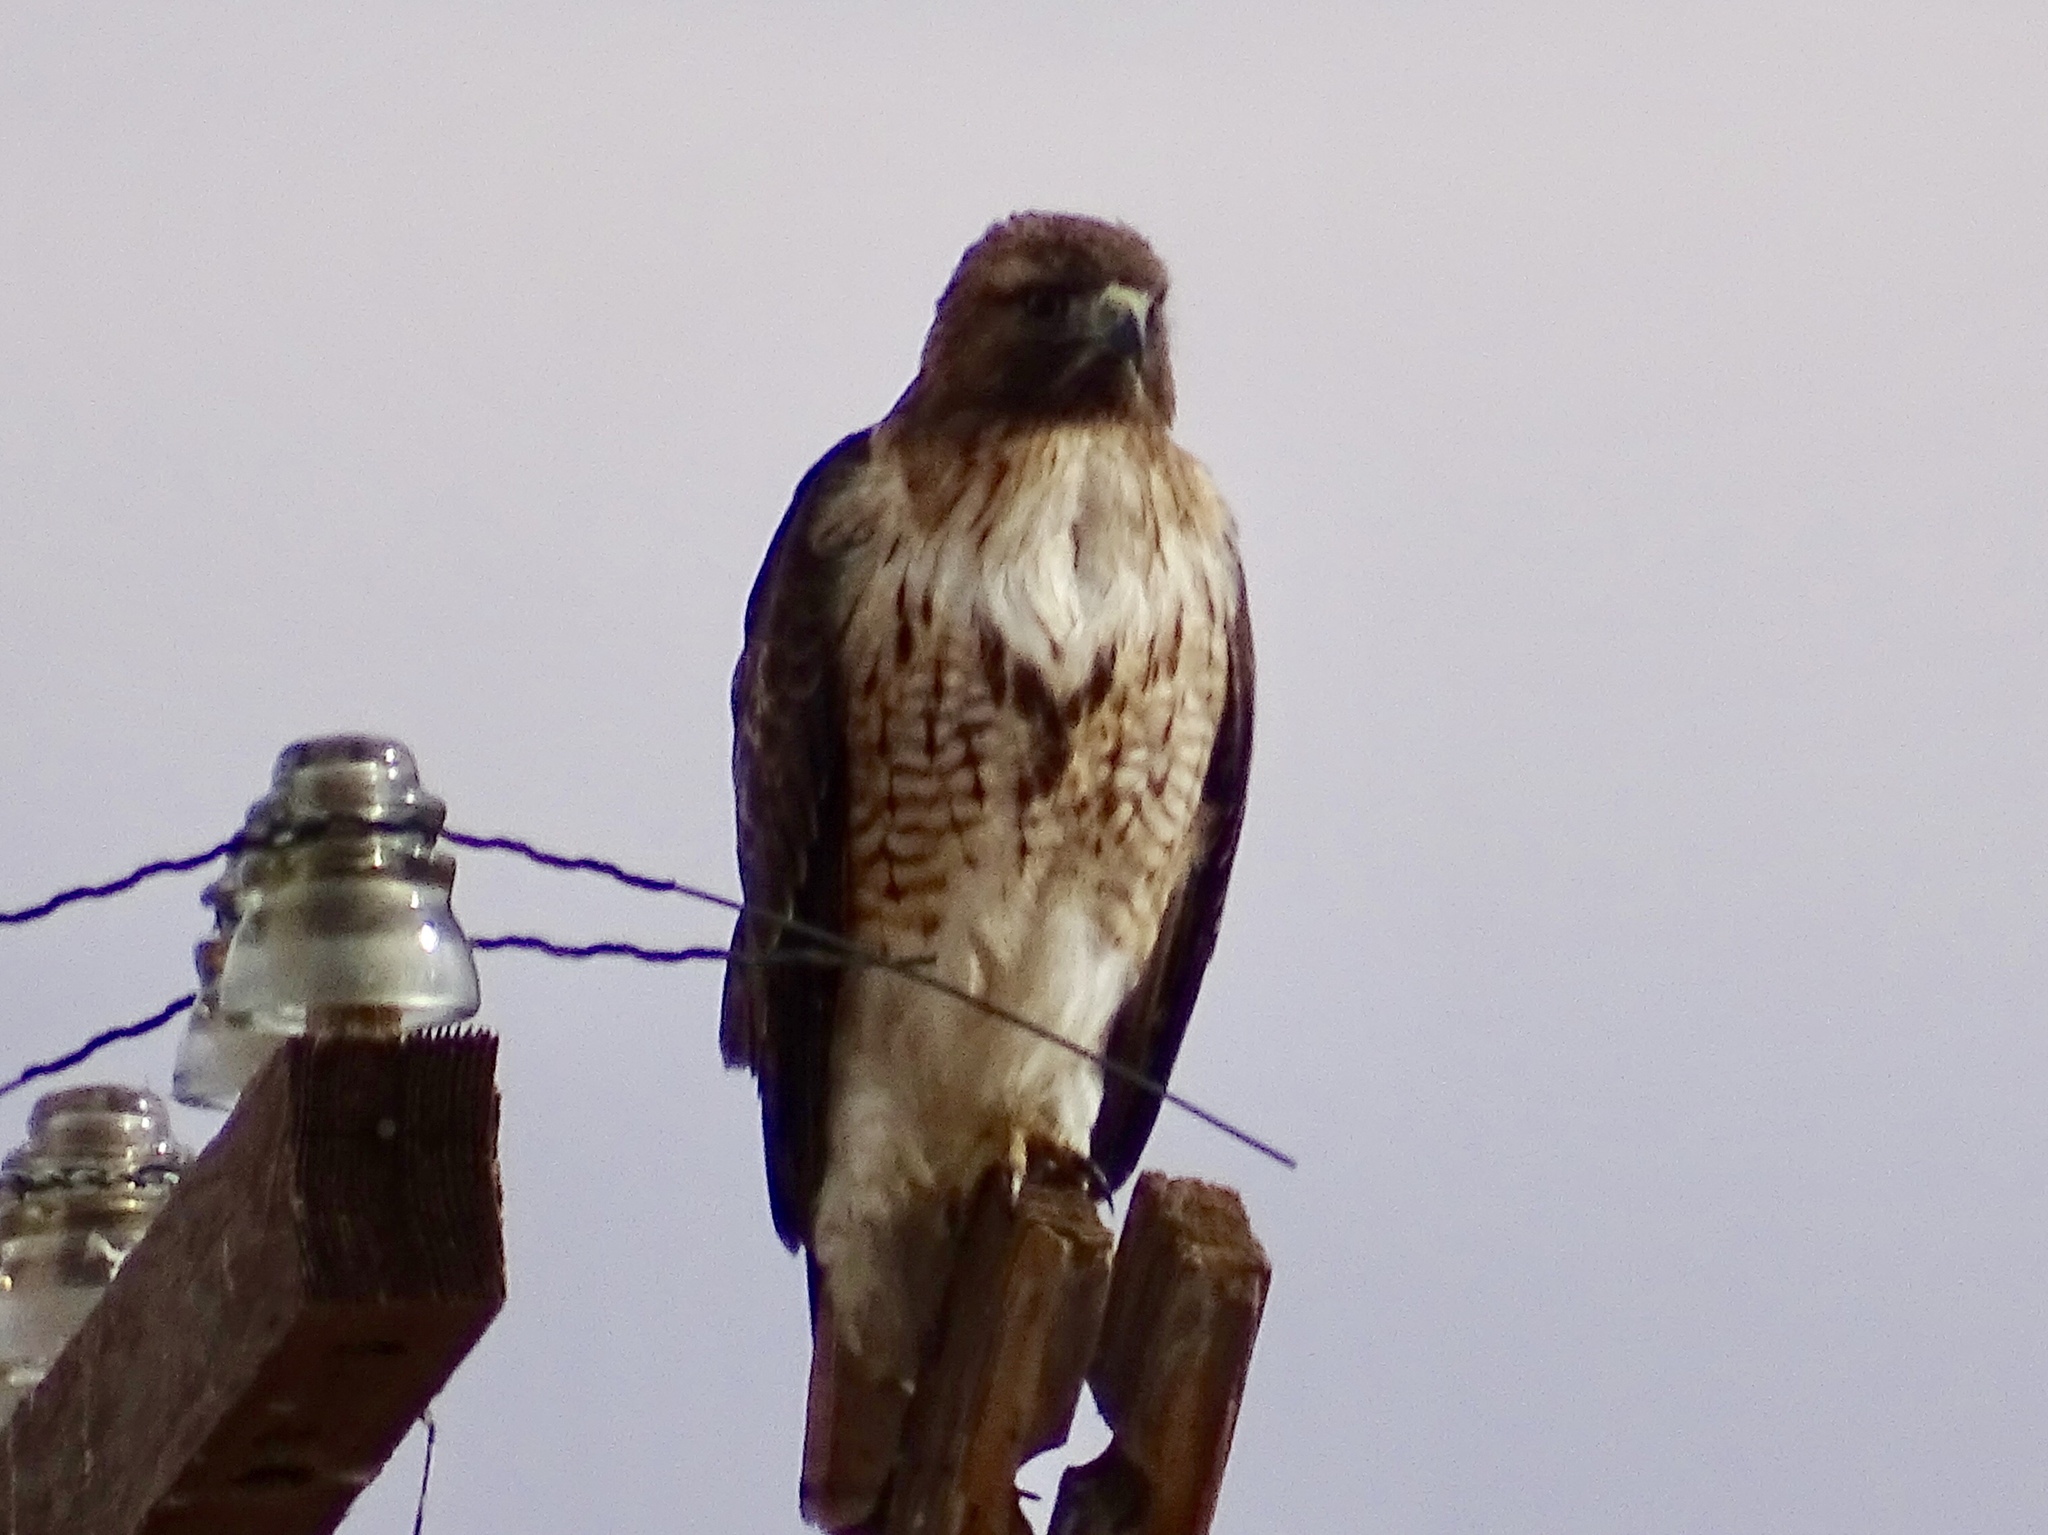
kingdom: Animalia
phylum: Chordata
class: Aves
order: Accipitriformes
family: Accipitridae
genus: Buteo
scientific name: Buteo jamaicensis
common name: Red-tailed hawk
